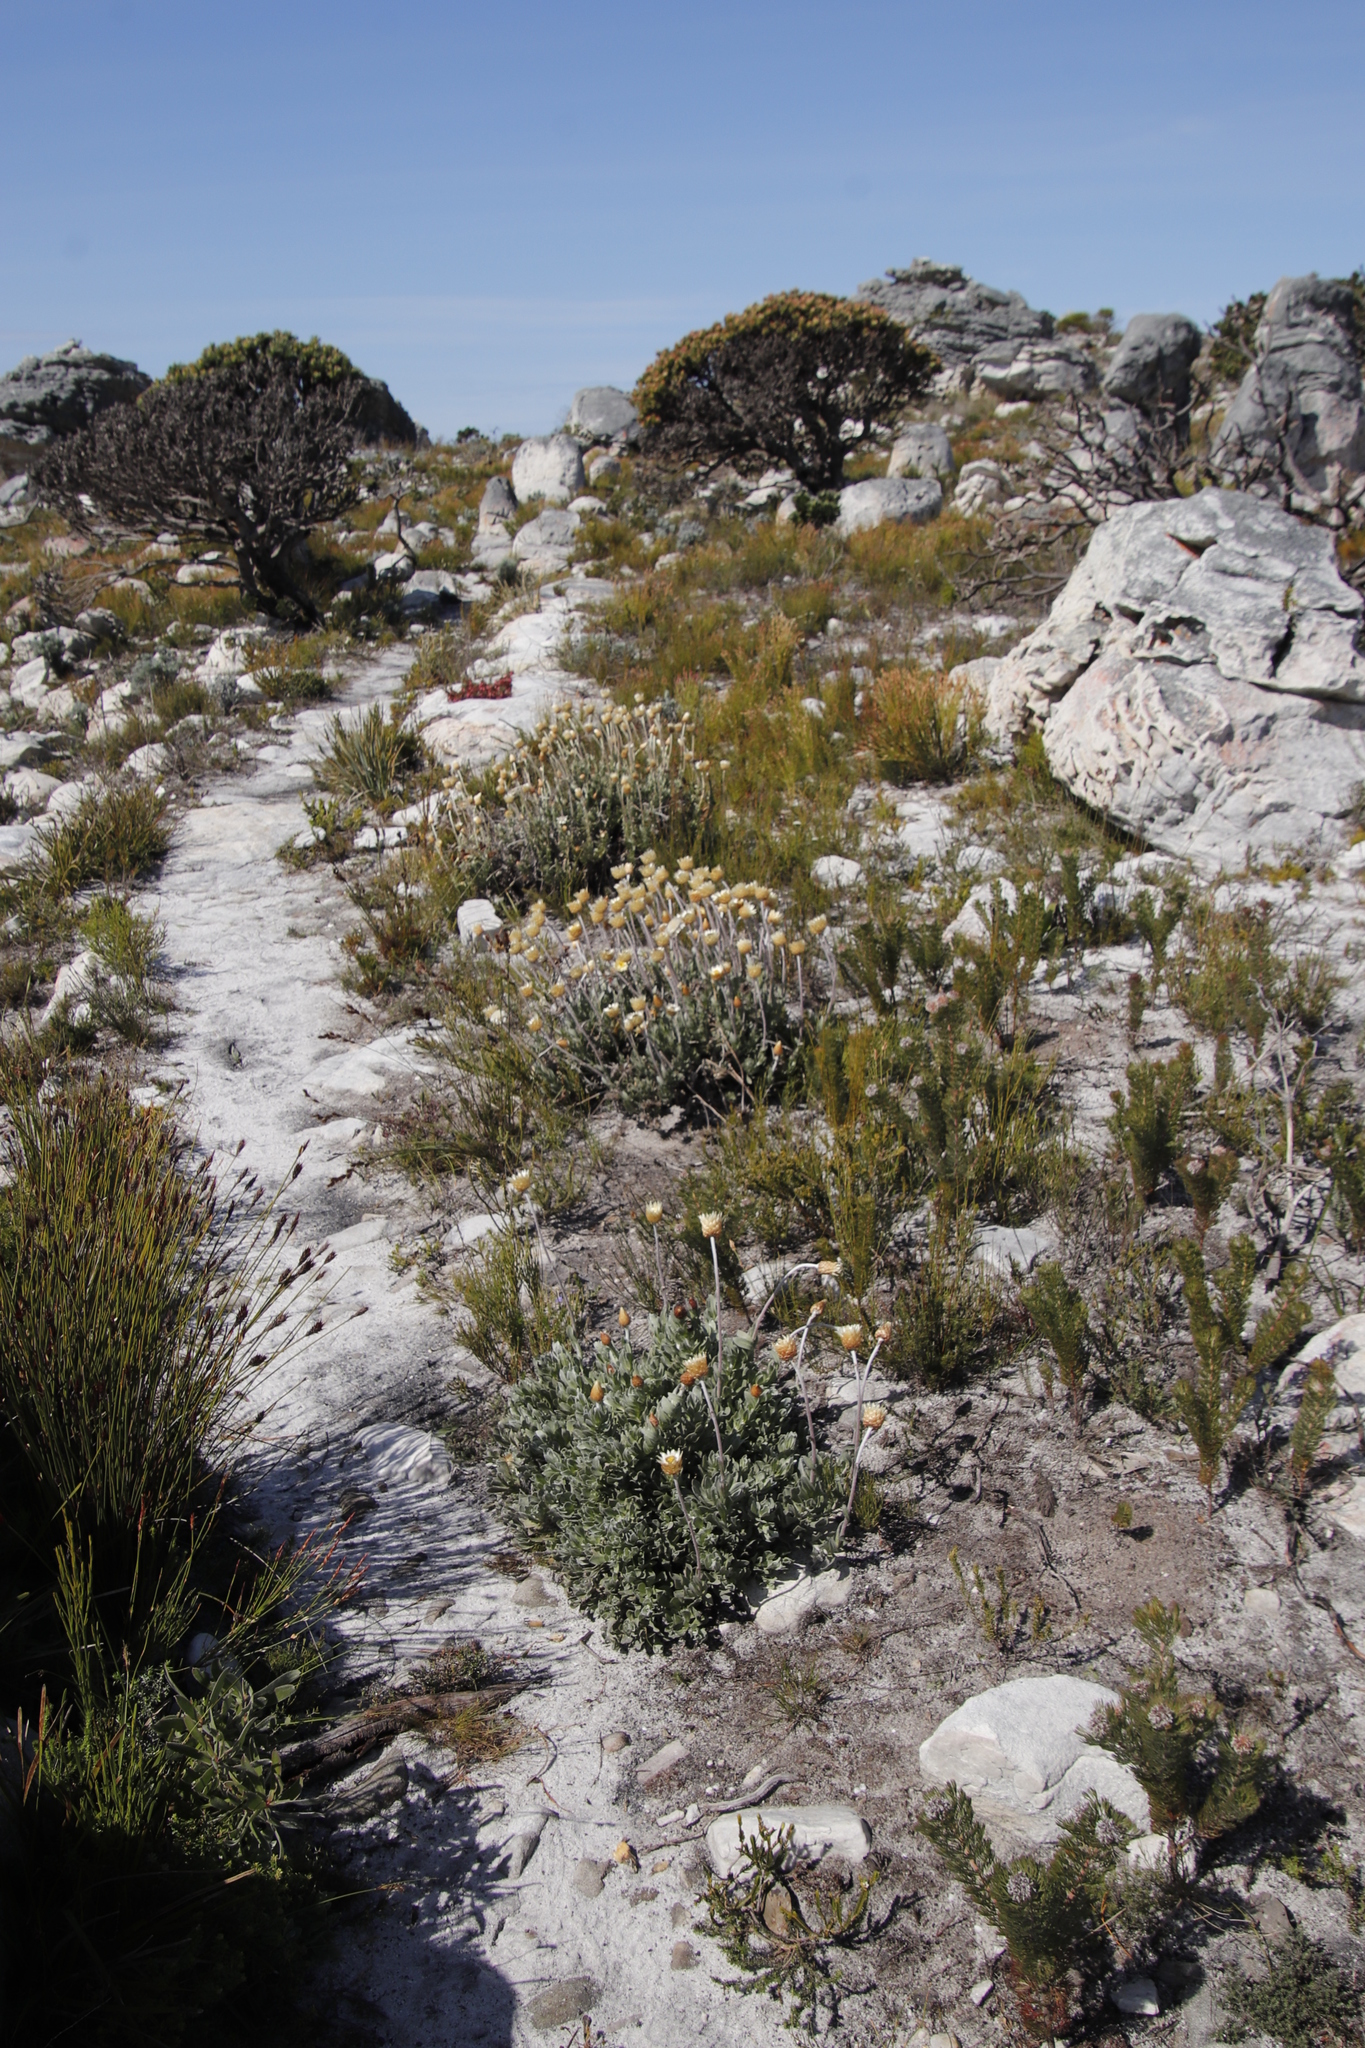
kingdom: Plantae
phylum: Tracheophyta
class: Magnoliopsida
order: Asterales
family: Asteraceae
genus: Syncarpha
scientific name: Syncarpha speciosissima
